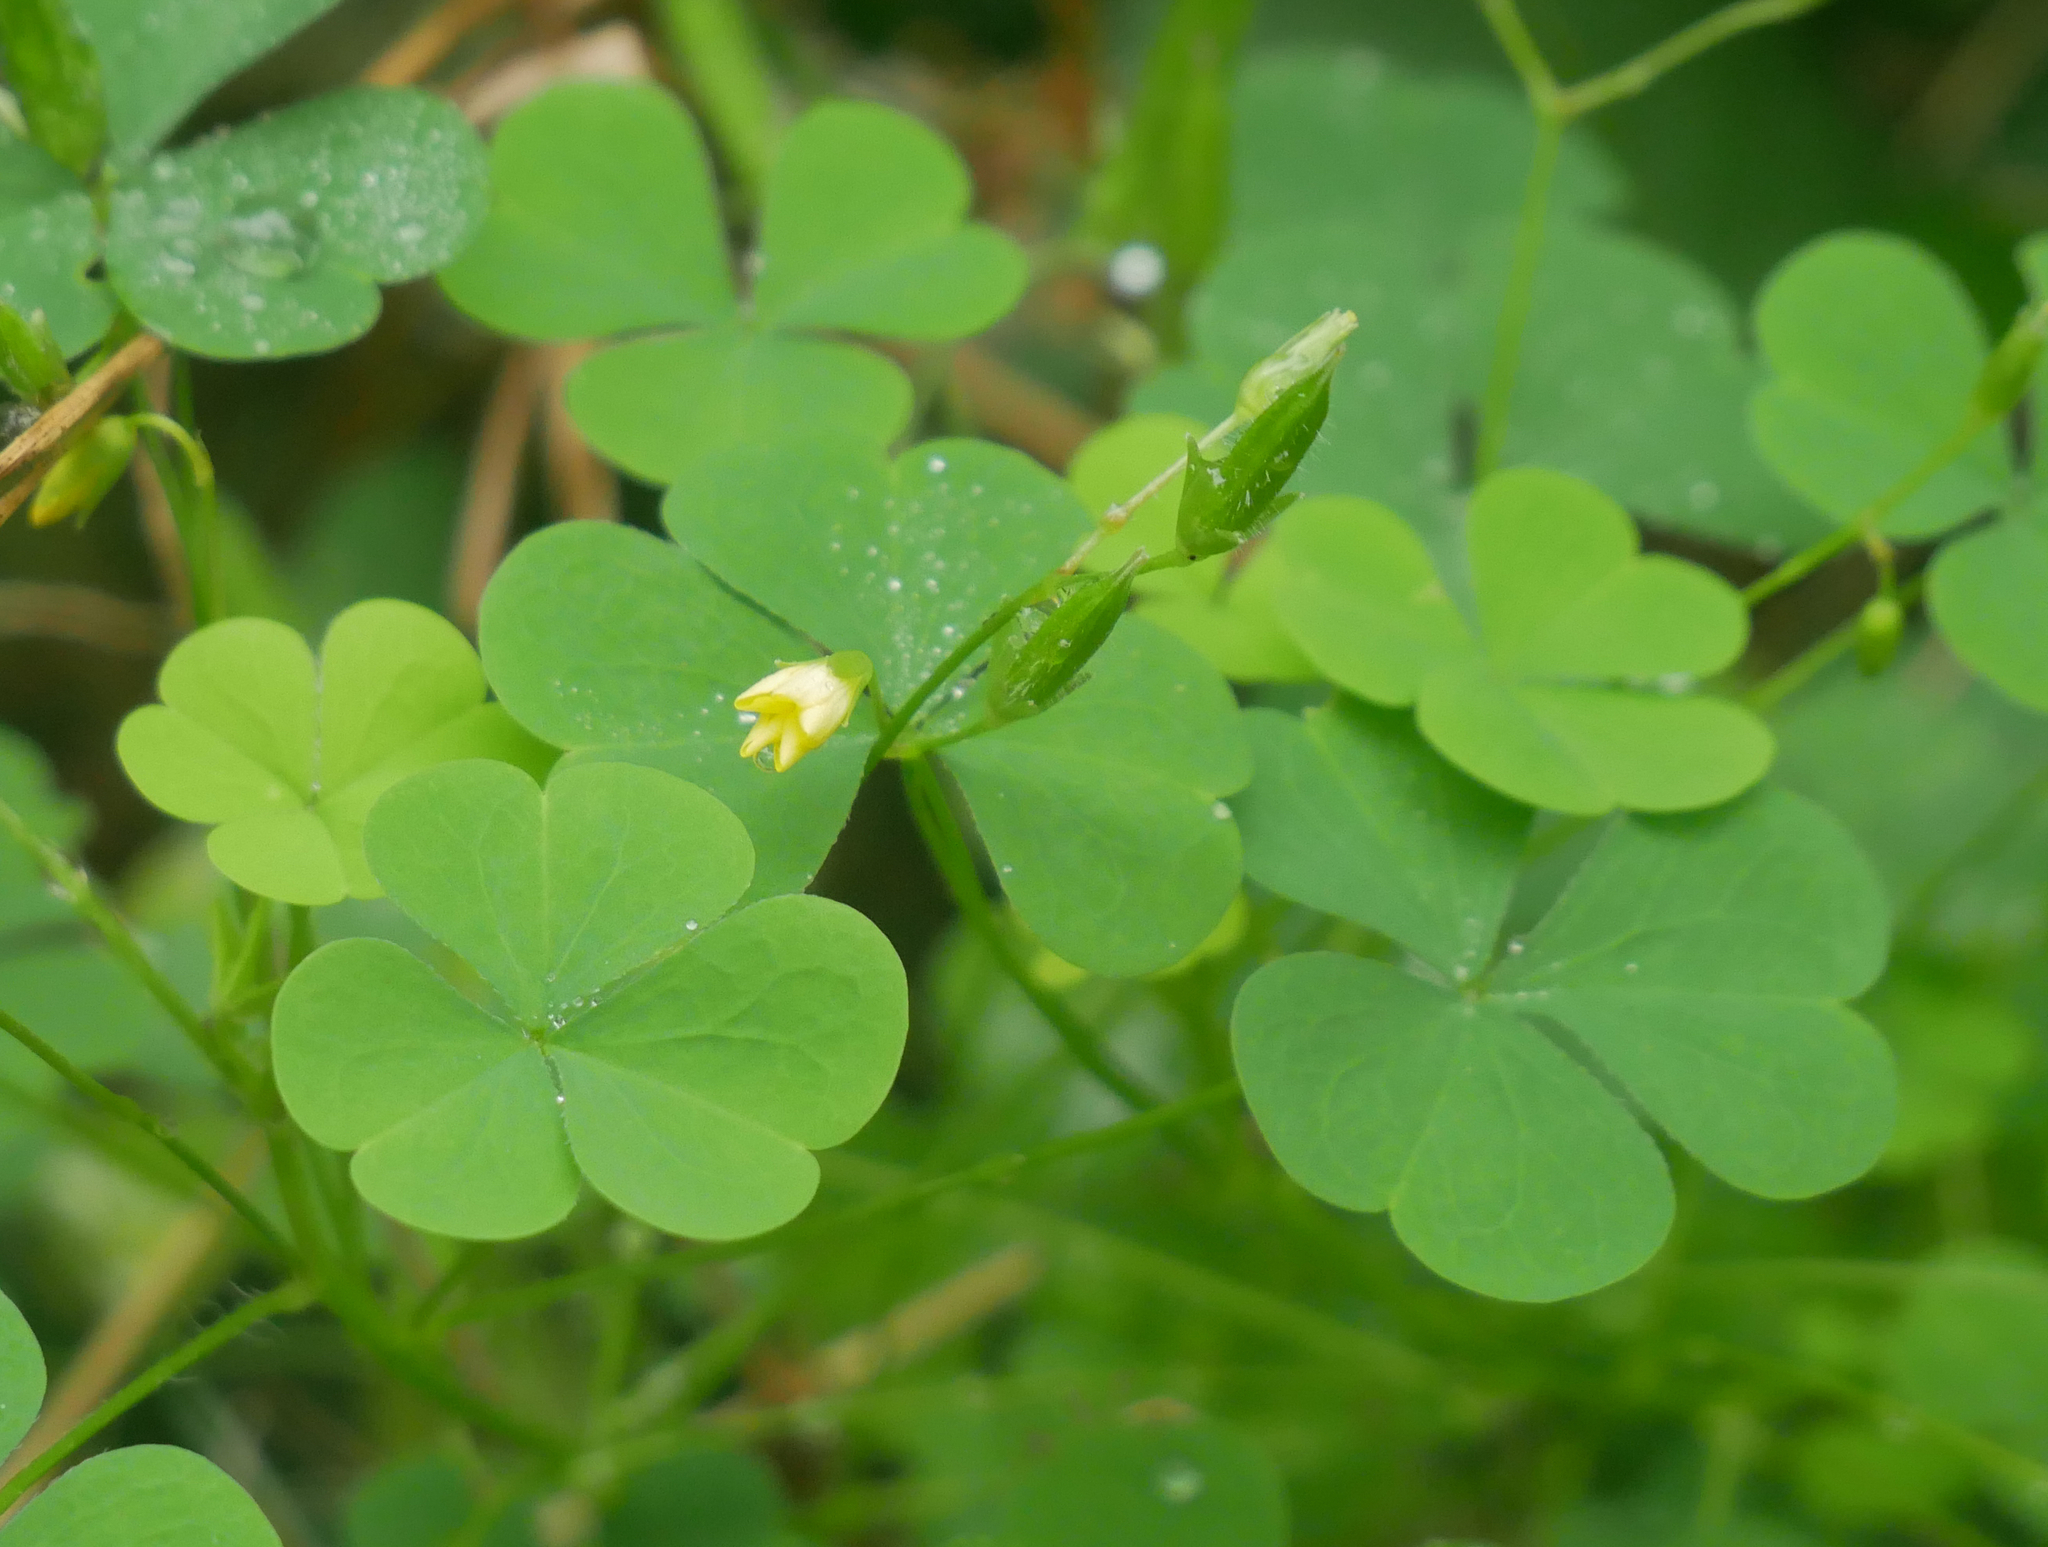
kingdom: Plantae
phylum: Tracheophyta
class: Magnoliopsida
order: Oxalidales
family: Oxalidaceae
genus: Oxalis
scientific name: Oxalis stricta
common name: Upright yellow-sorrel
